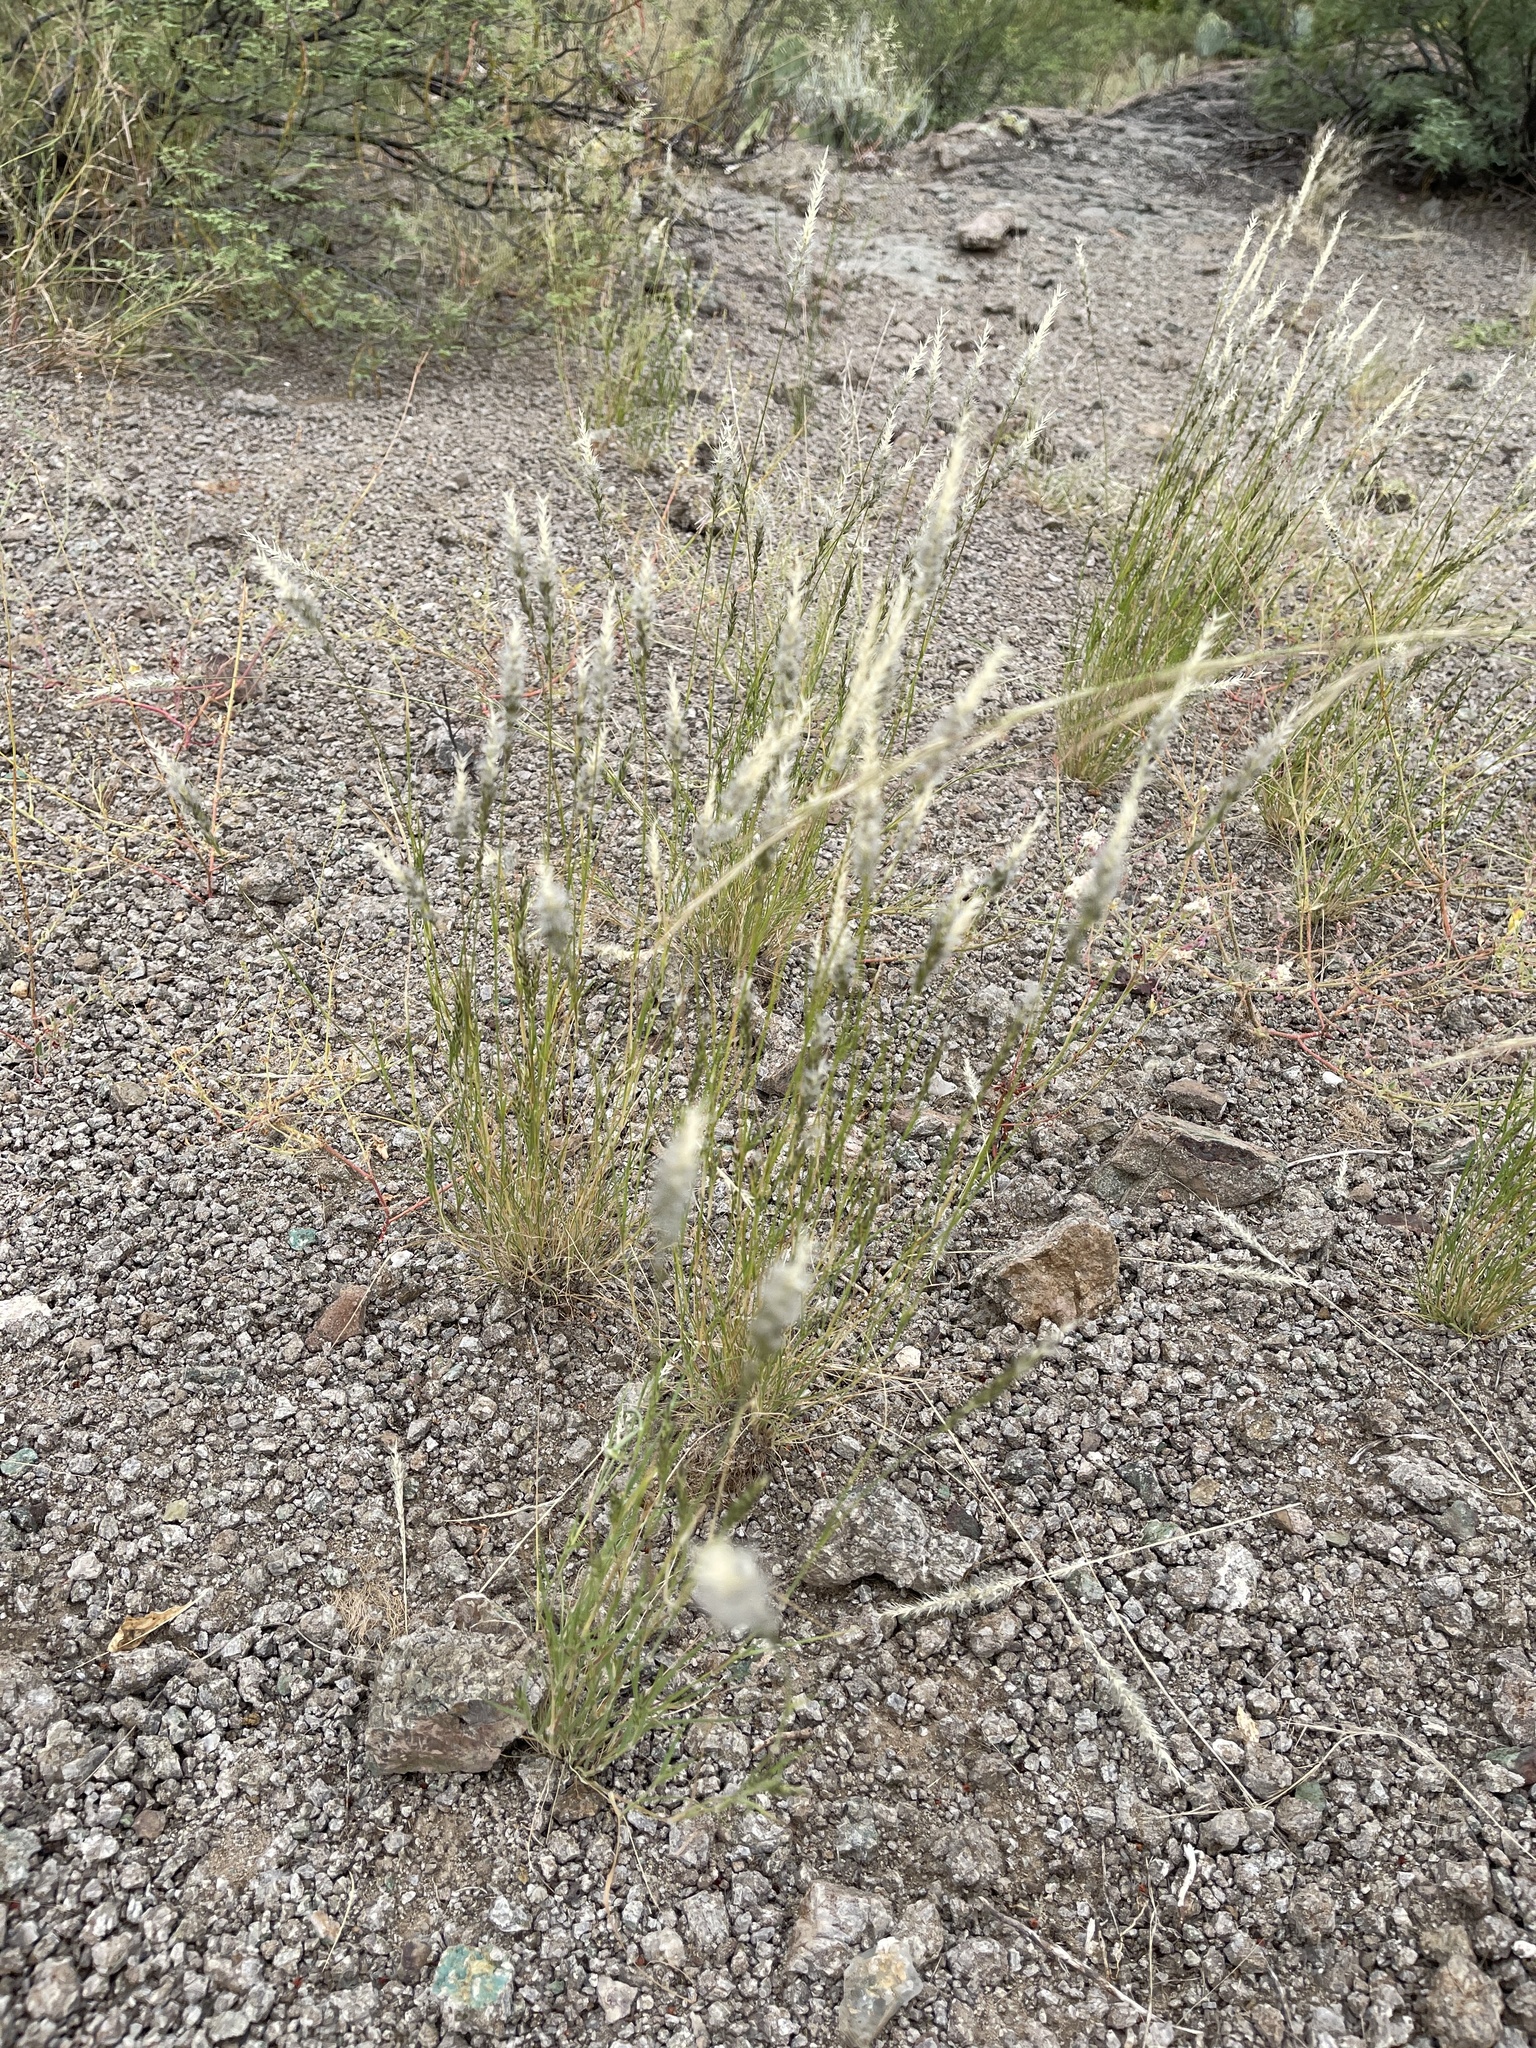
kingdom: Plantae
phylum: Tracheophyta
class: Liliopsida
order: Poales
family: Poaceae
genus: Enneapogon
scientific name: Enneapogon desvauxii
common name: Feather pappus grass
